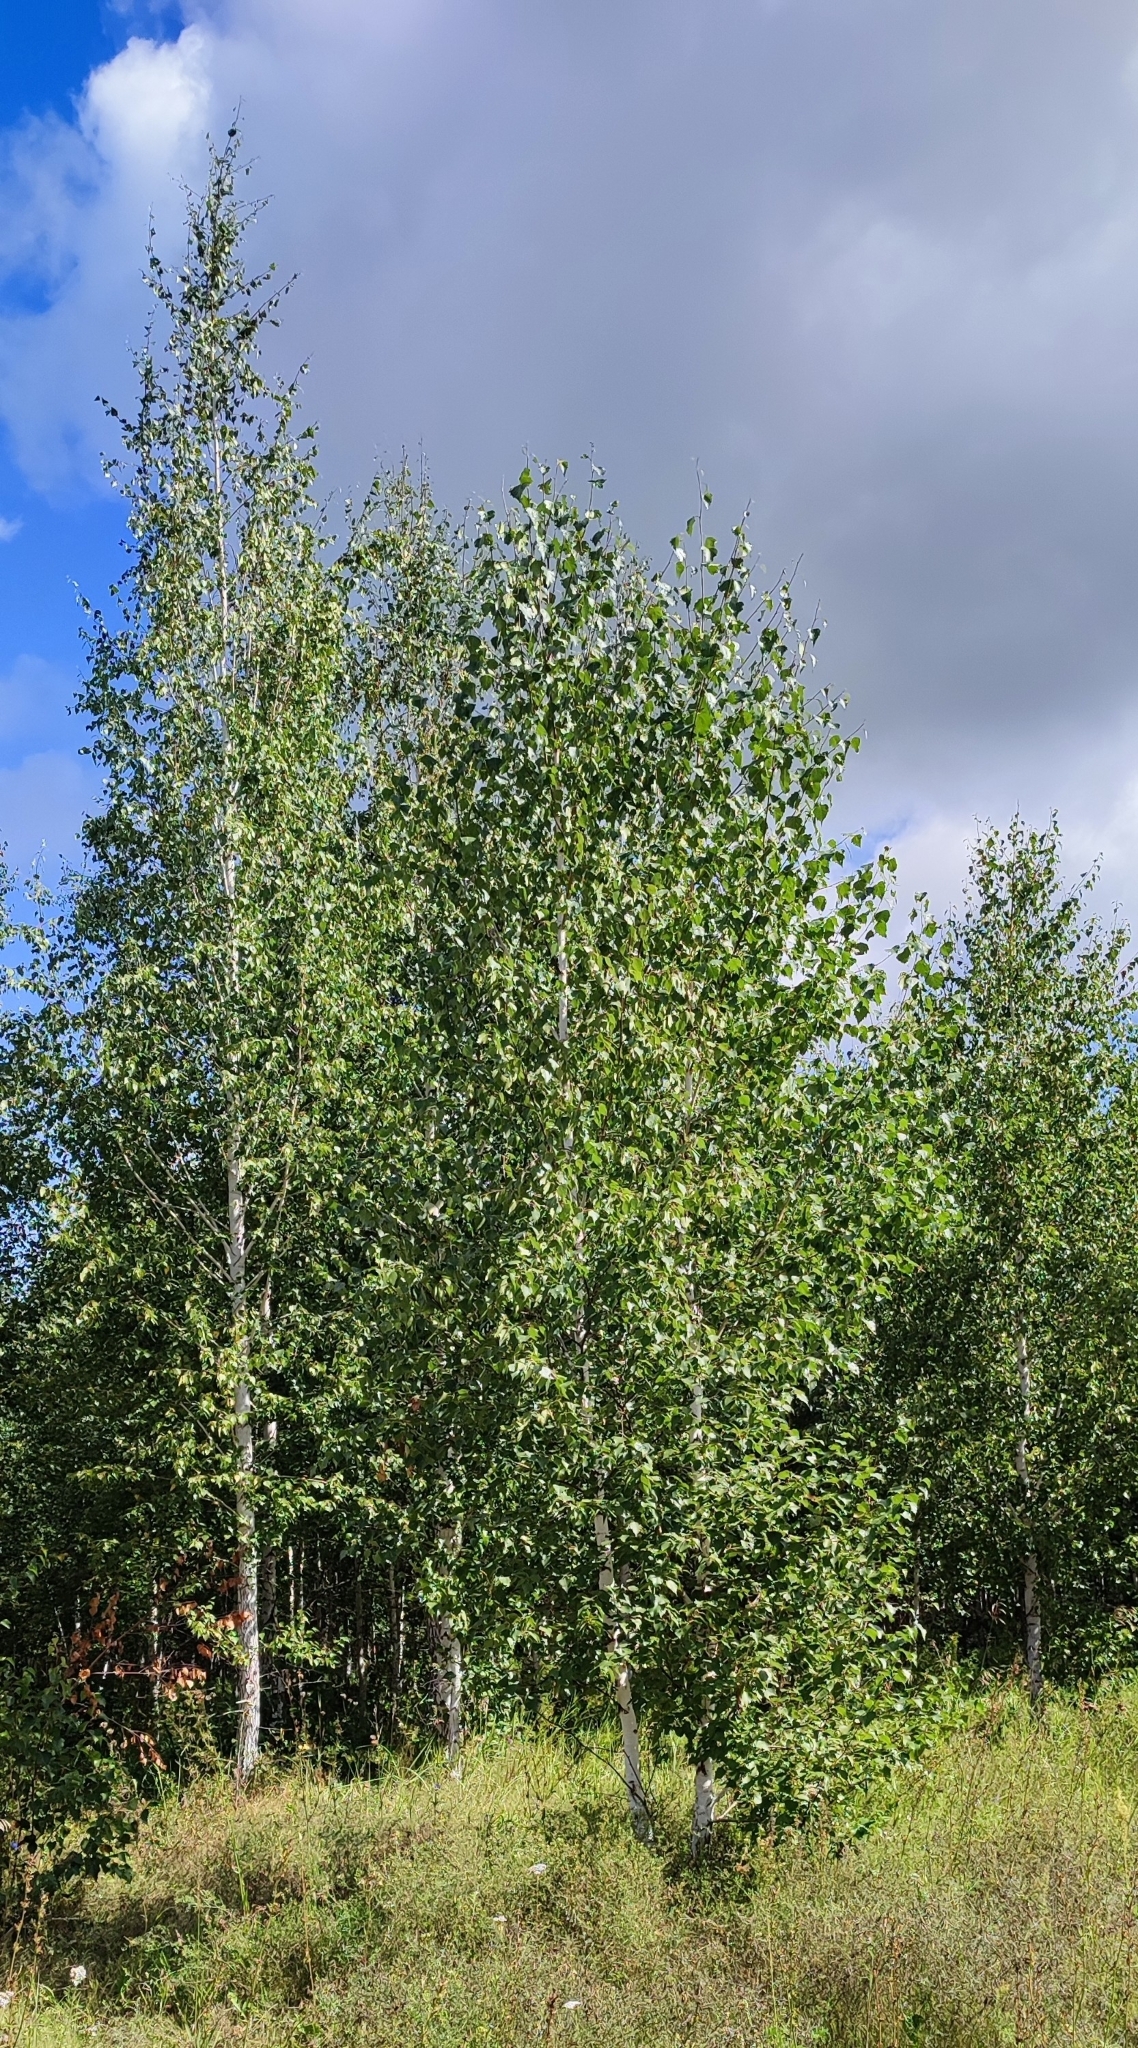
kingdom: Plantae
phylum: Tracheophyta
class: Magnoliopsida
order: Fagales
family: Betulaceae
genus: Betula
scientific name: Betula pendula
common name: Silver birch
